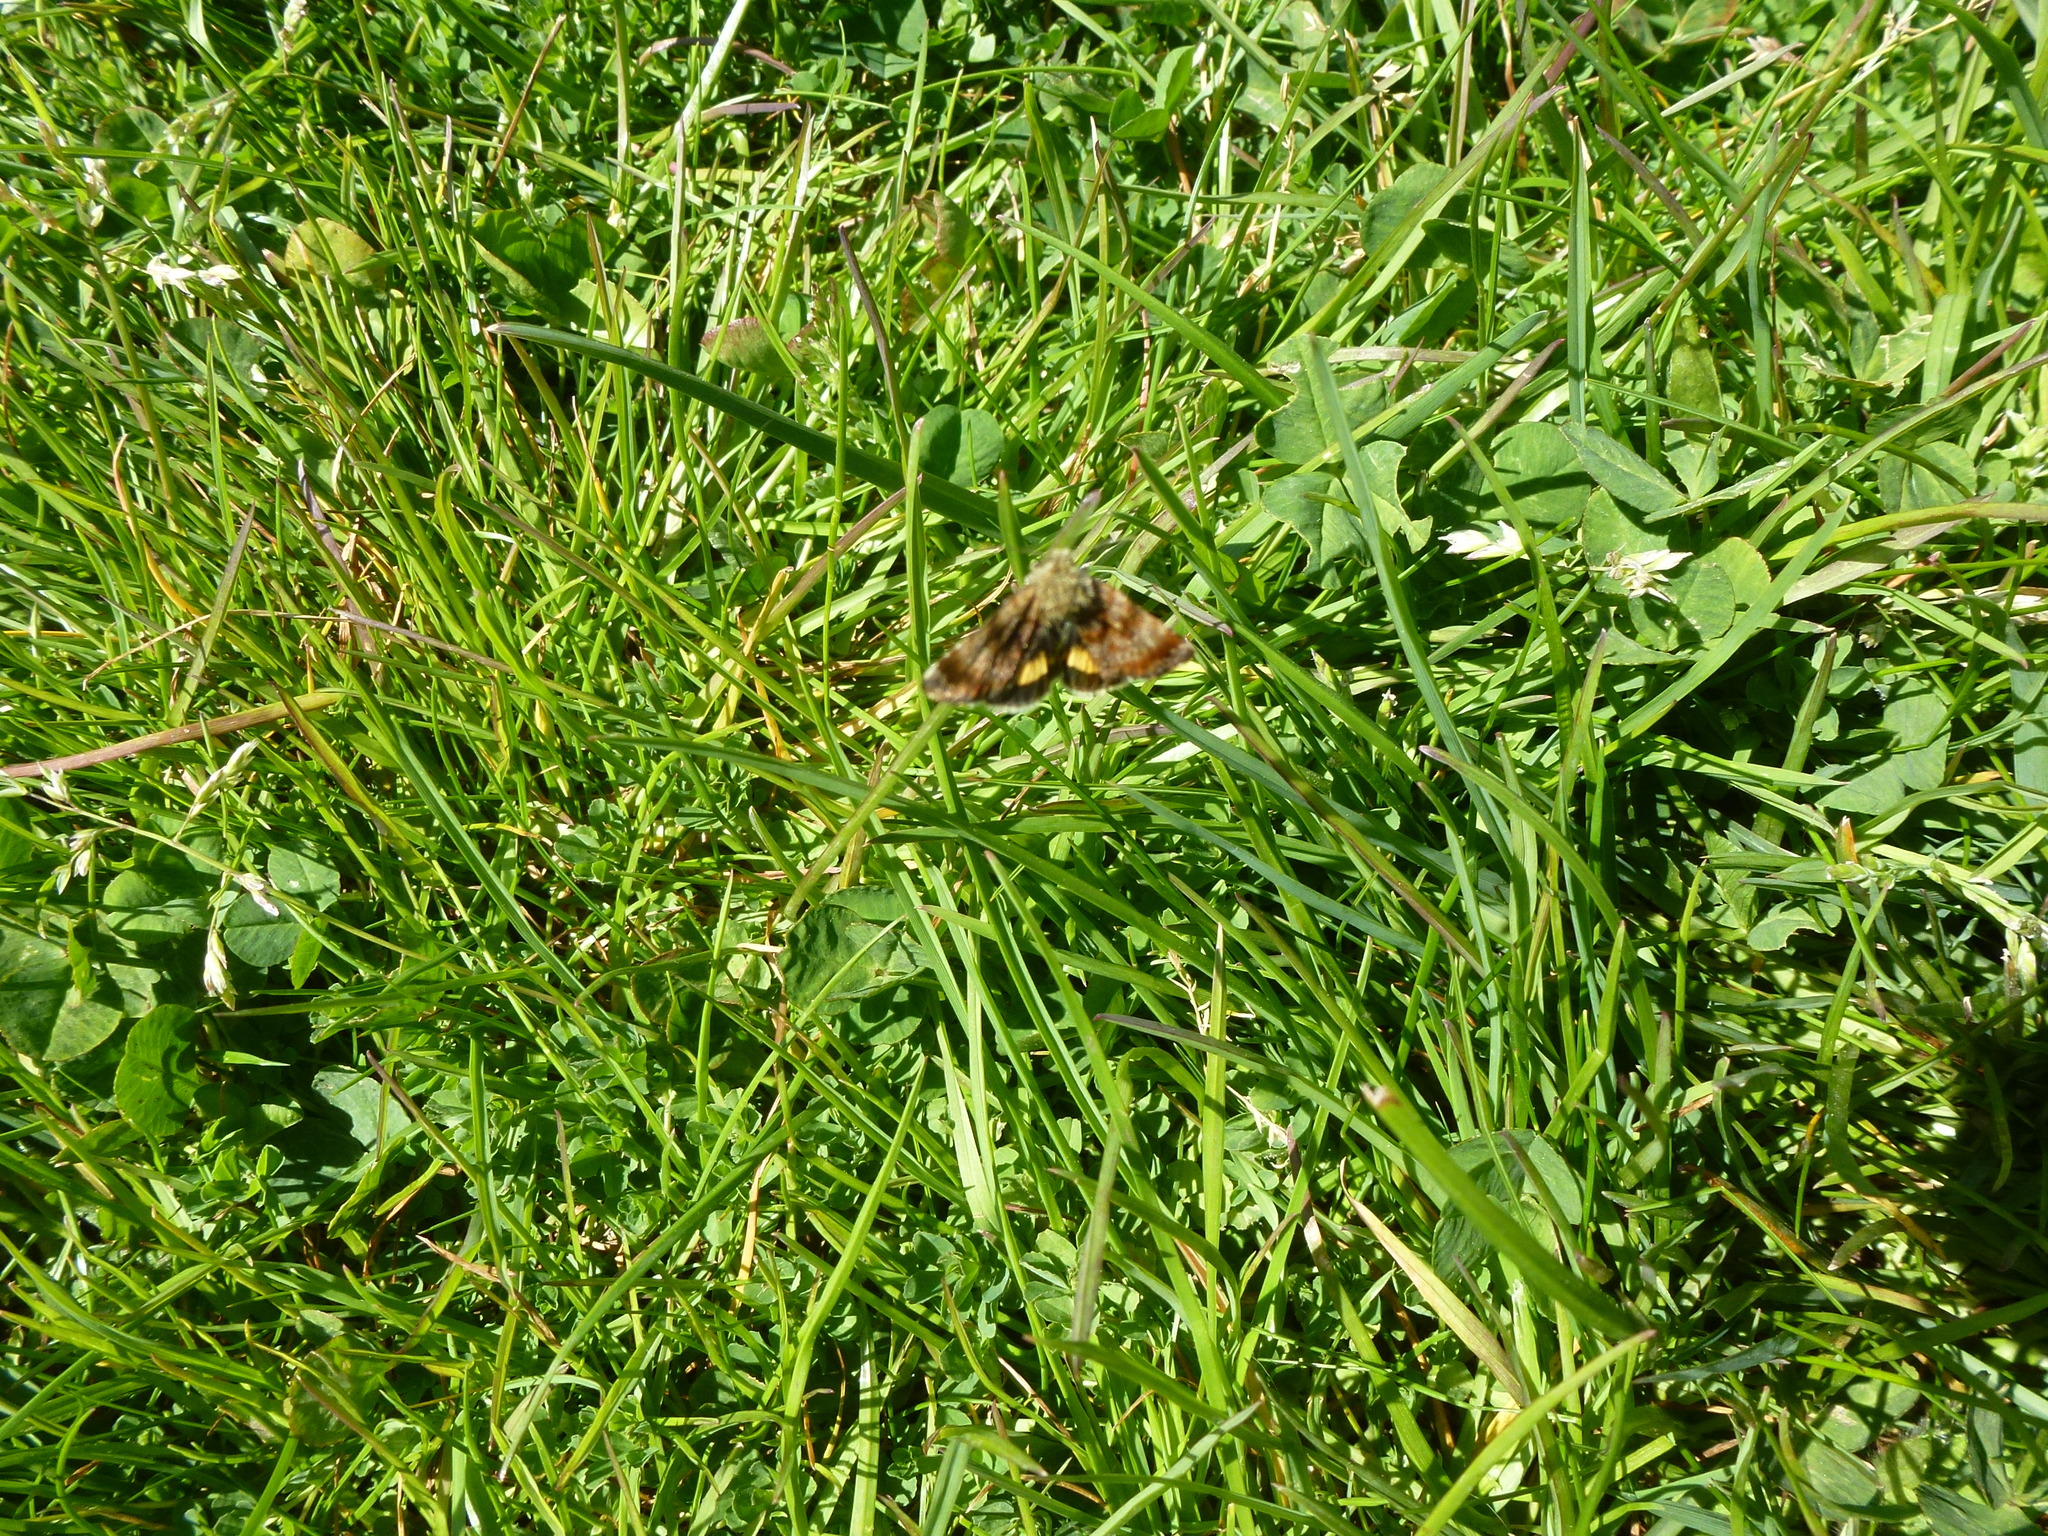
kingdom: Animalia
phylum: Arthropoda
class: Insecta
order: Lepidoptera
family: Noctuidae
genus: Panemeria
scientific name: Panemeria tenebrata
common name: Small yellow underwing
